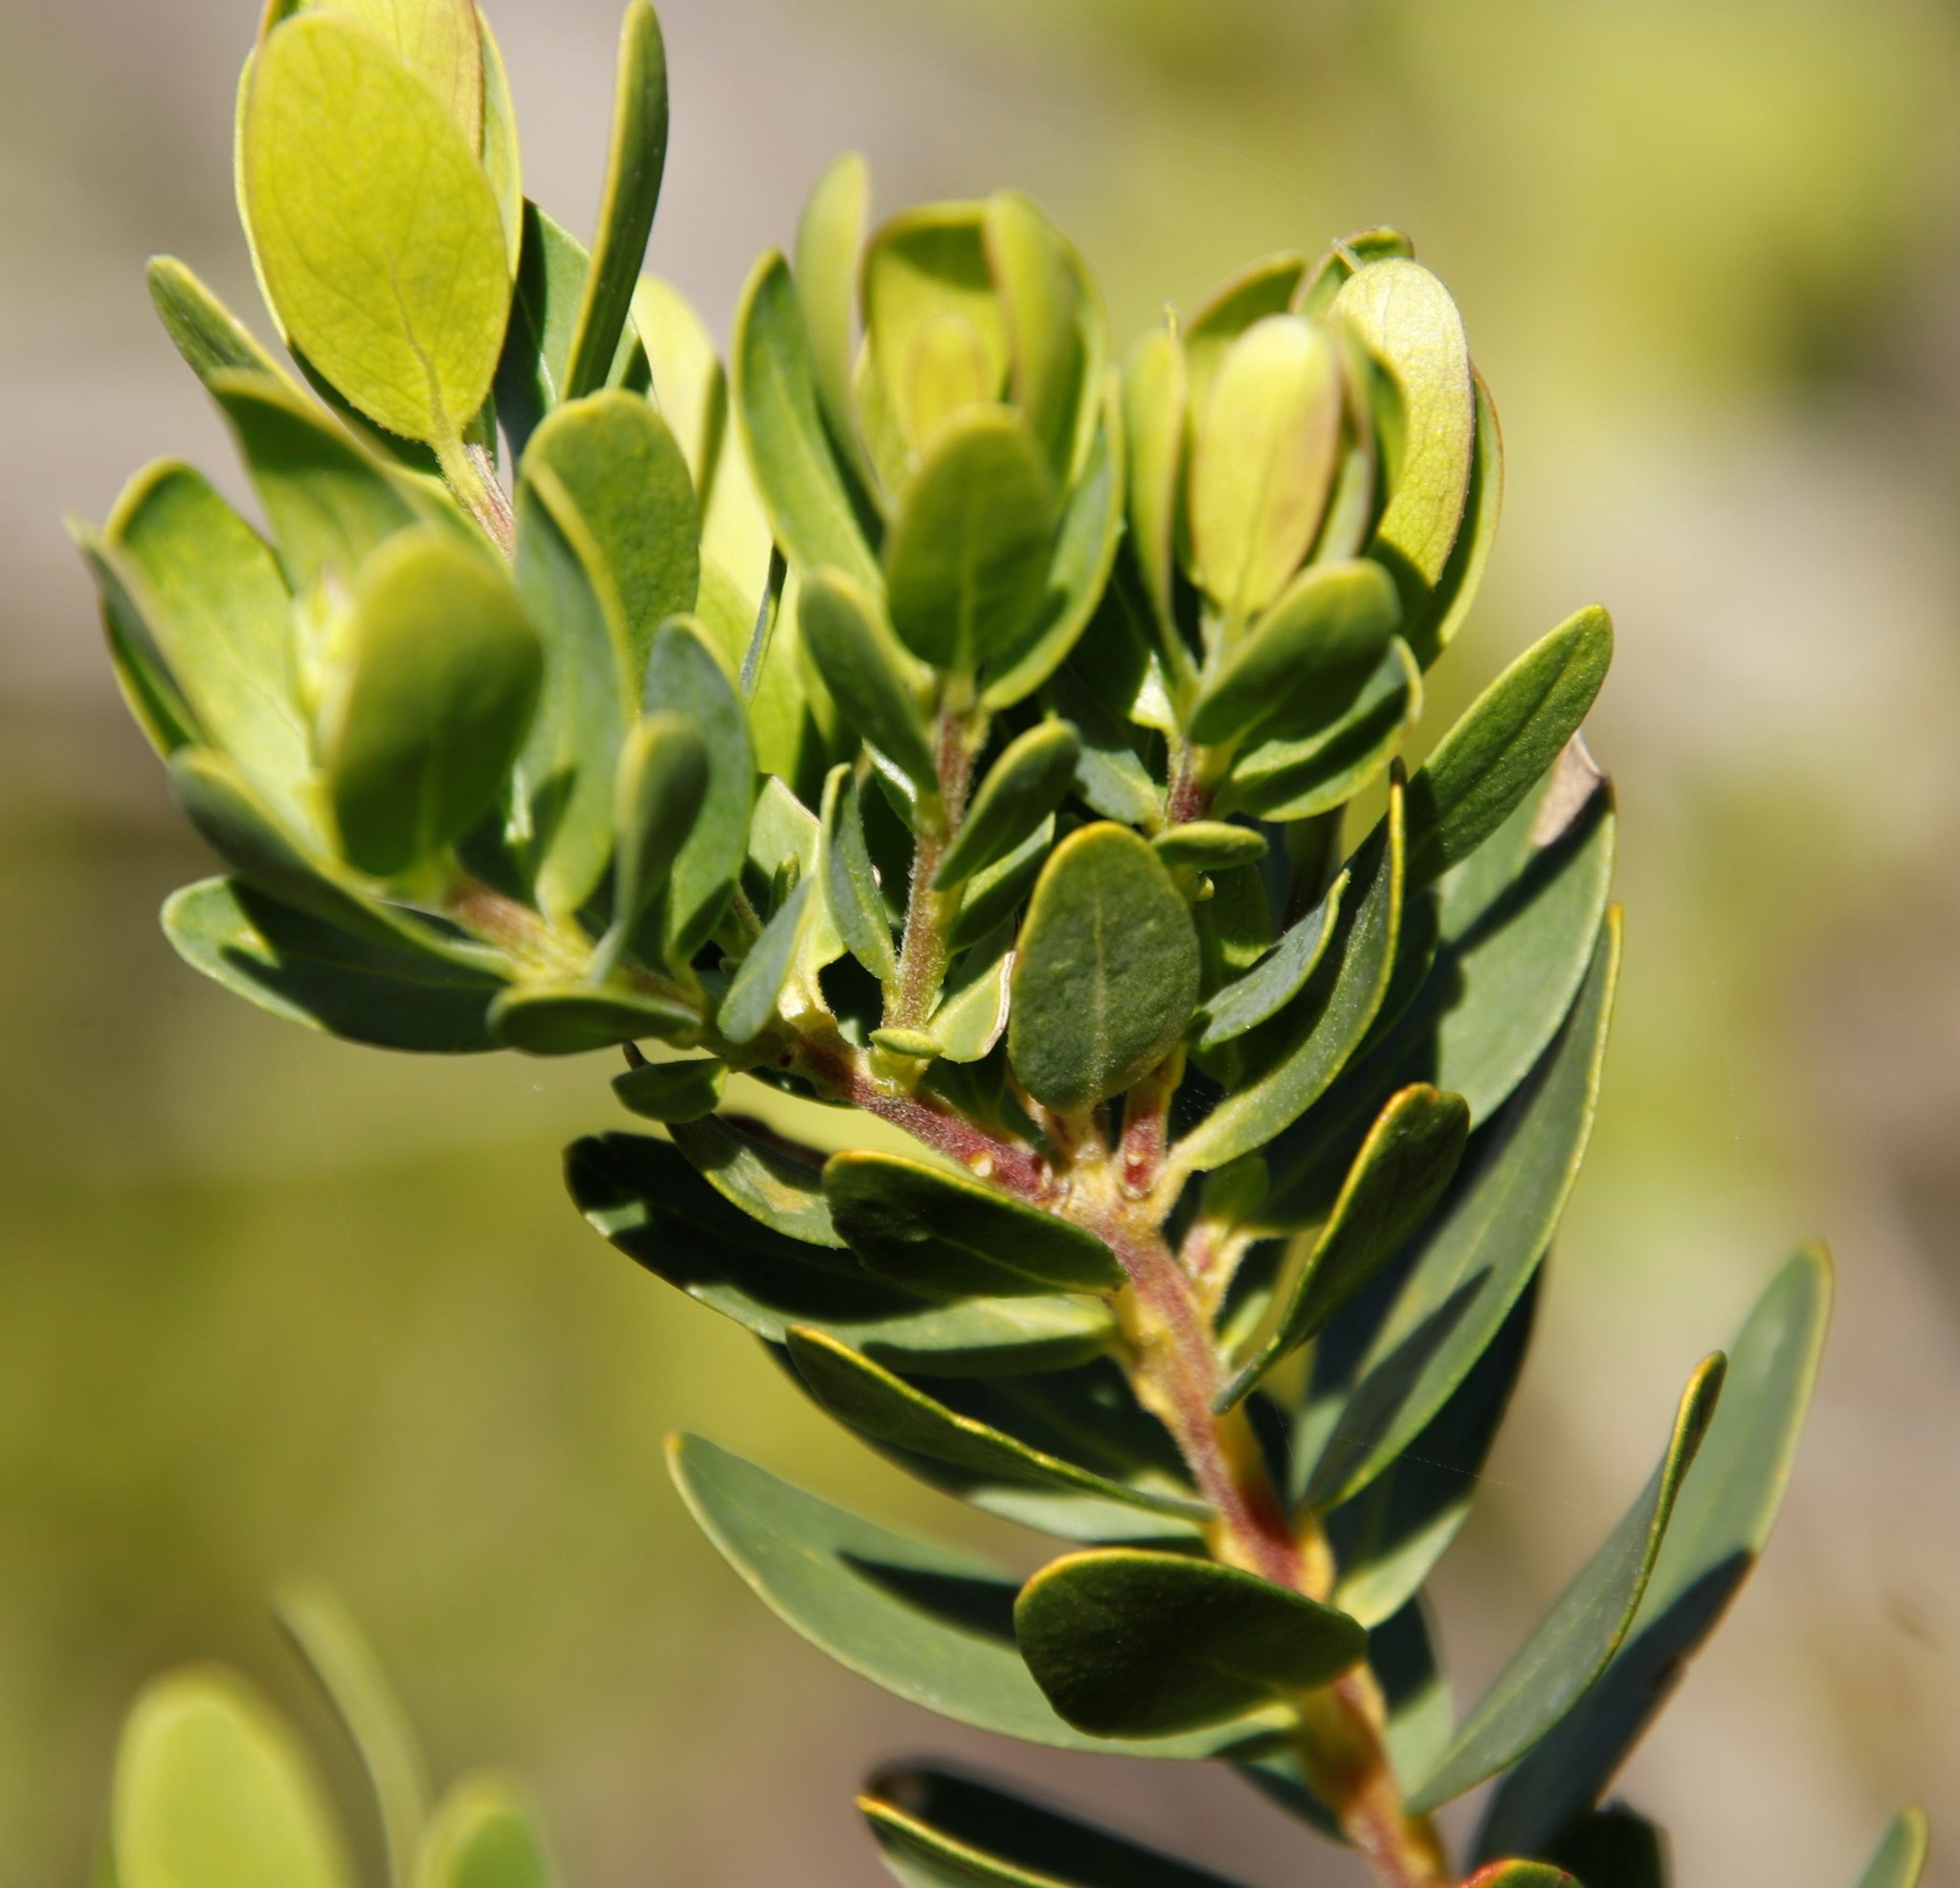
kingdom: Plantae
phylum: Tracheophyta
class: Magnoliopsida
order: Santalales
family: Santalaceae
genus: Osyris
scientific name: Osyris compressa
